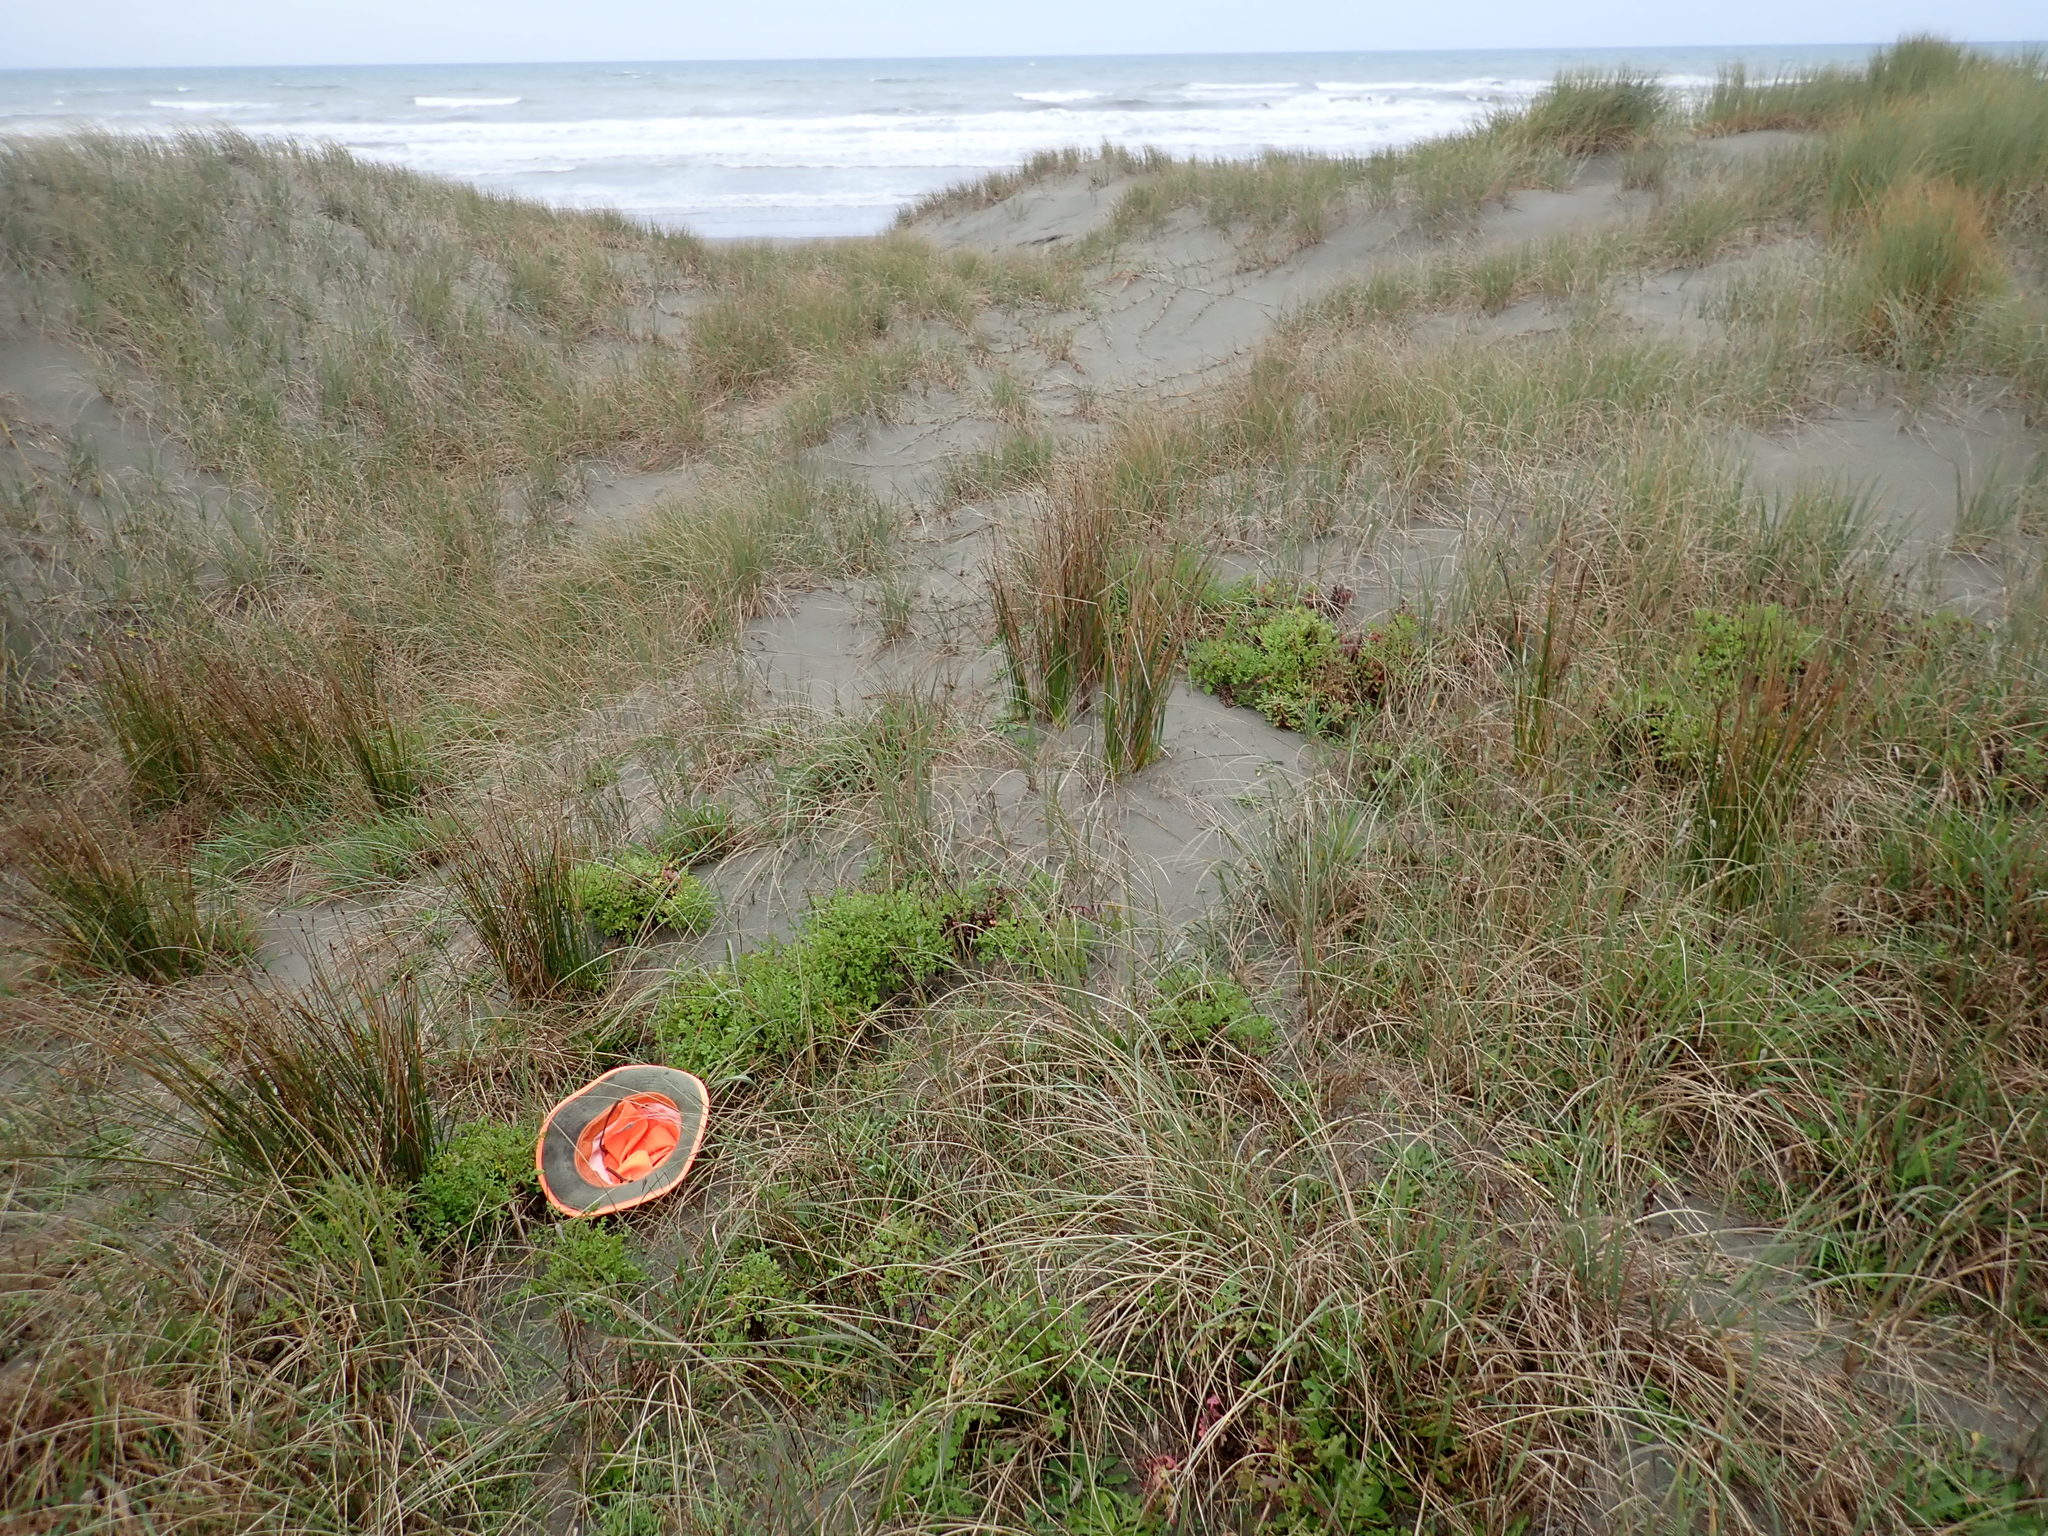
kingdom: Plantae
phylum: Tracheophyta
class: Magnoliopsida
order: Asterales
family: Asteraceae
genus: Senecio
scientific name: Senecio elegans
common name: Purple groundsel
